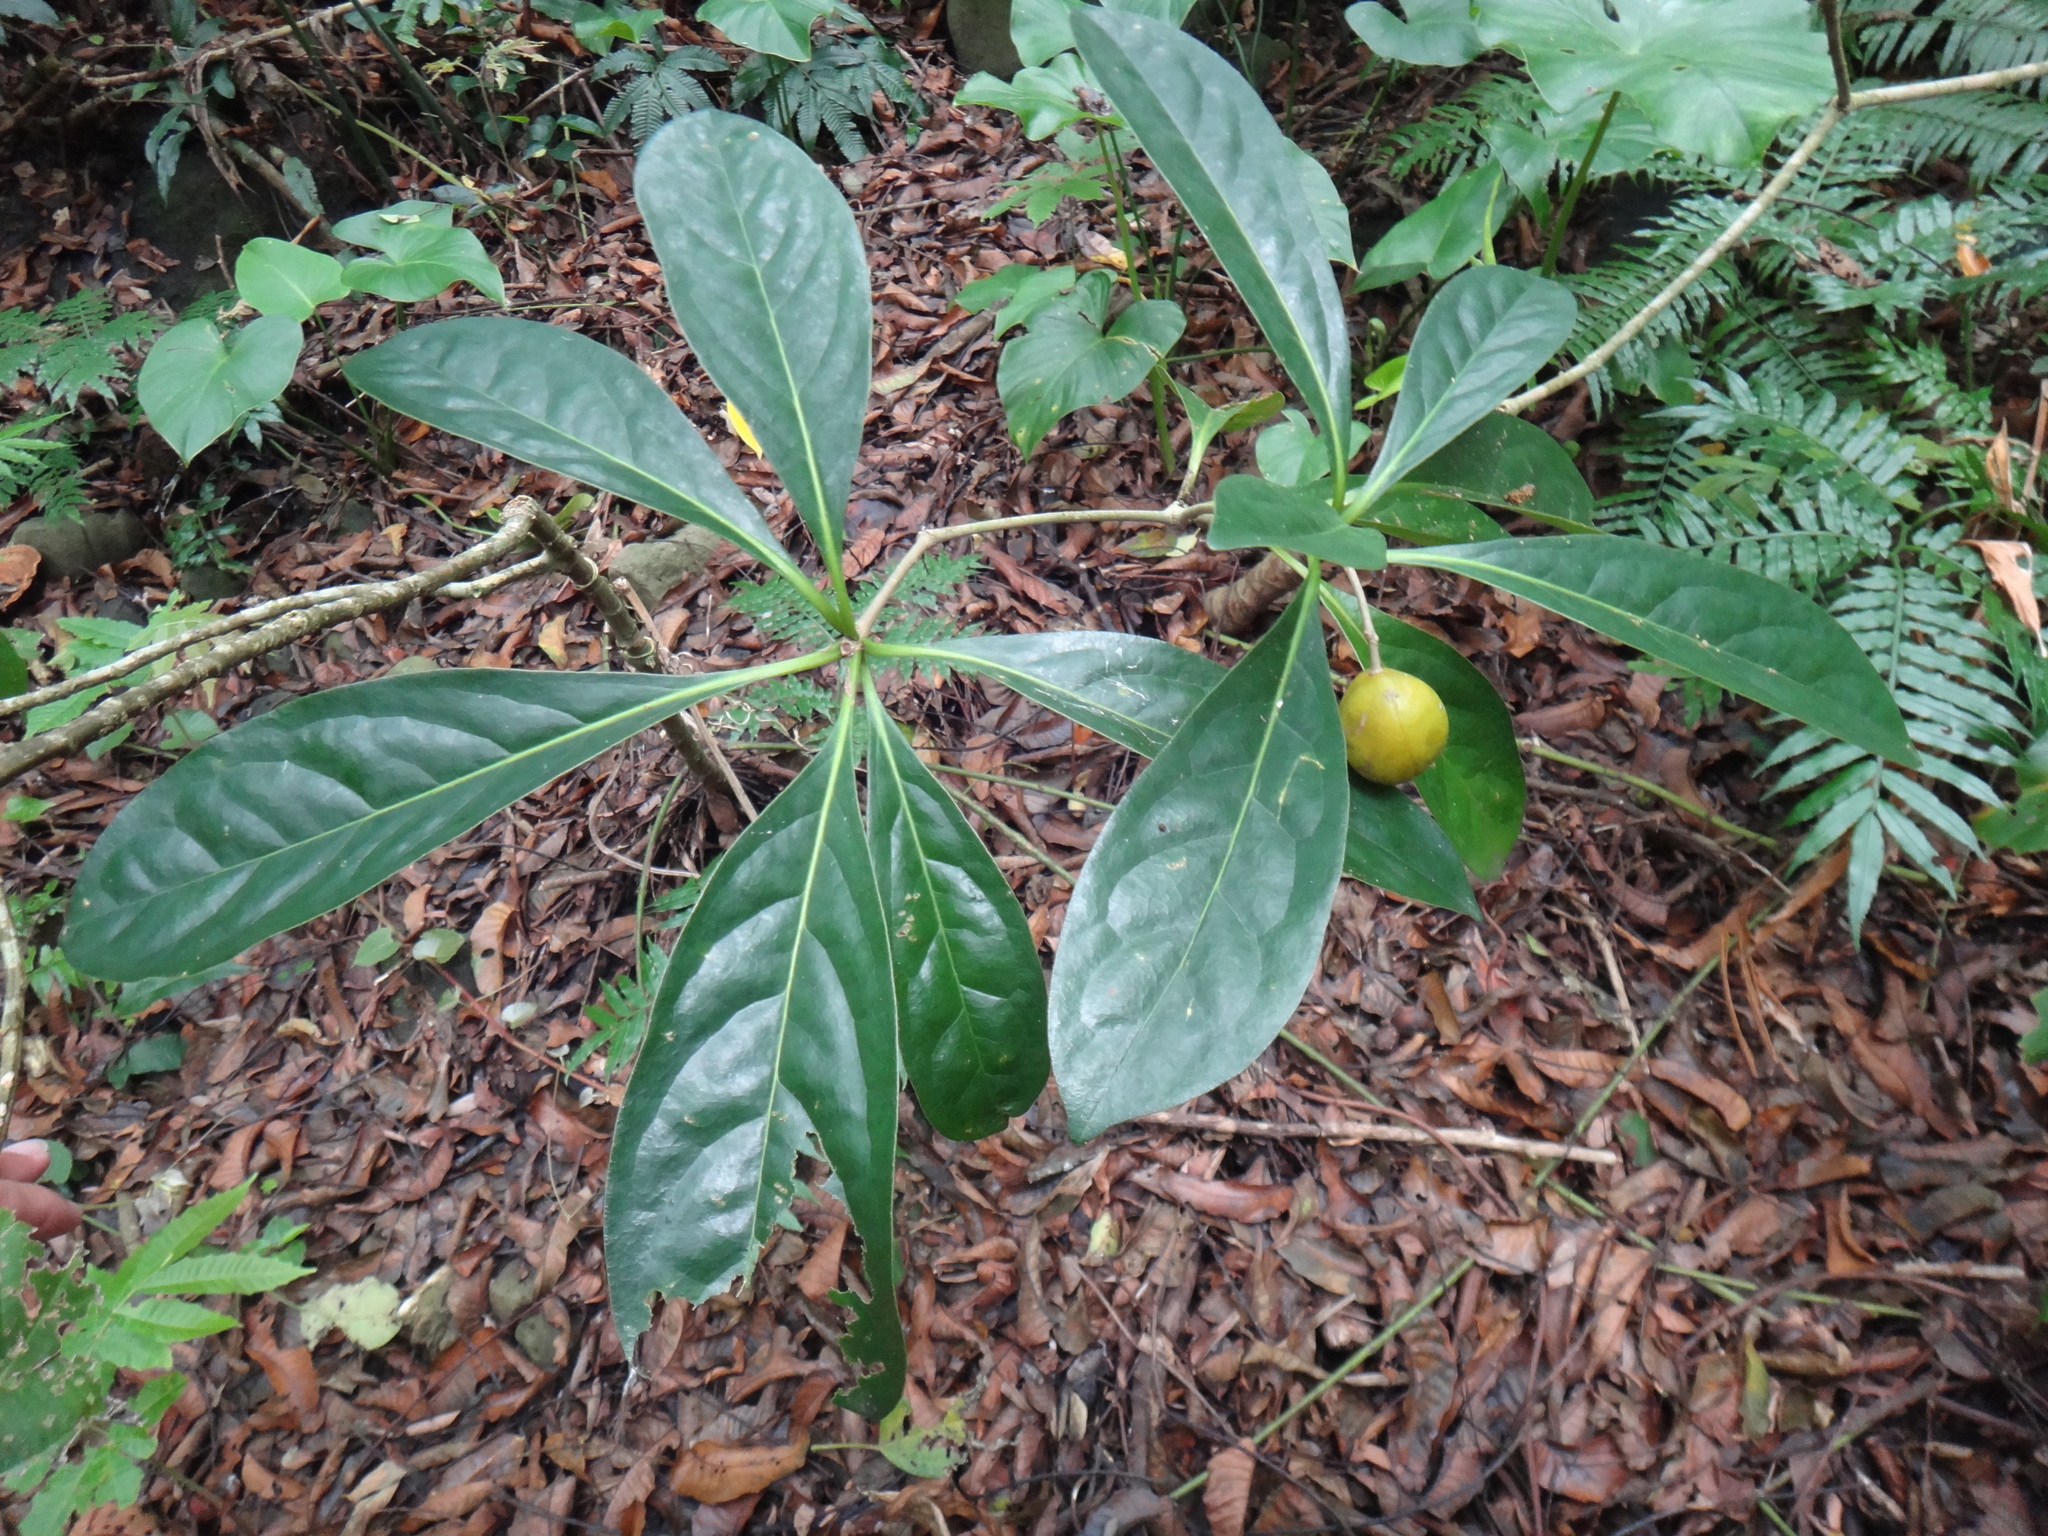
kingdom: Plantae
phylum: Tracheophyta
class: Magnoliopsida
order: Apiales
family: Pittosporaceae
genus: Pittosporum
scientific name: Pittosporum moluccanum
